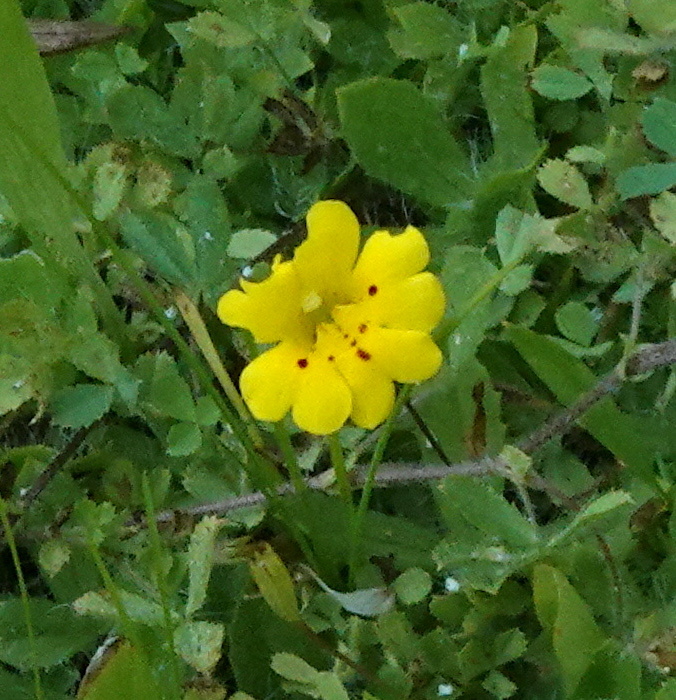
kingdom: Plantae
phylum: Tracheophyta
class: Magnoliopsida
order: Lamiales
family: Phrymaceae
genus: Erythranthe
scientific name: Erythranthe primuloides
